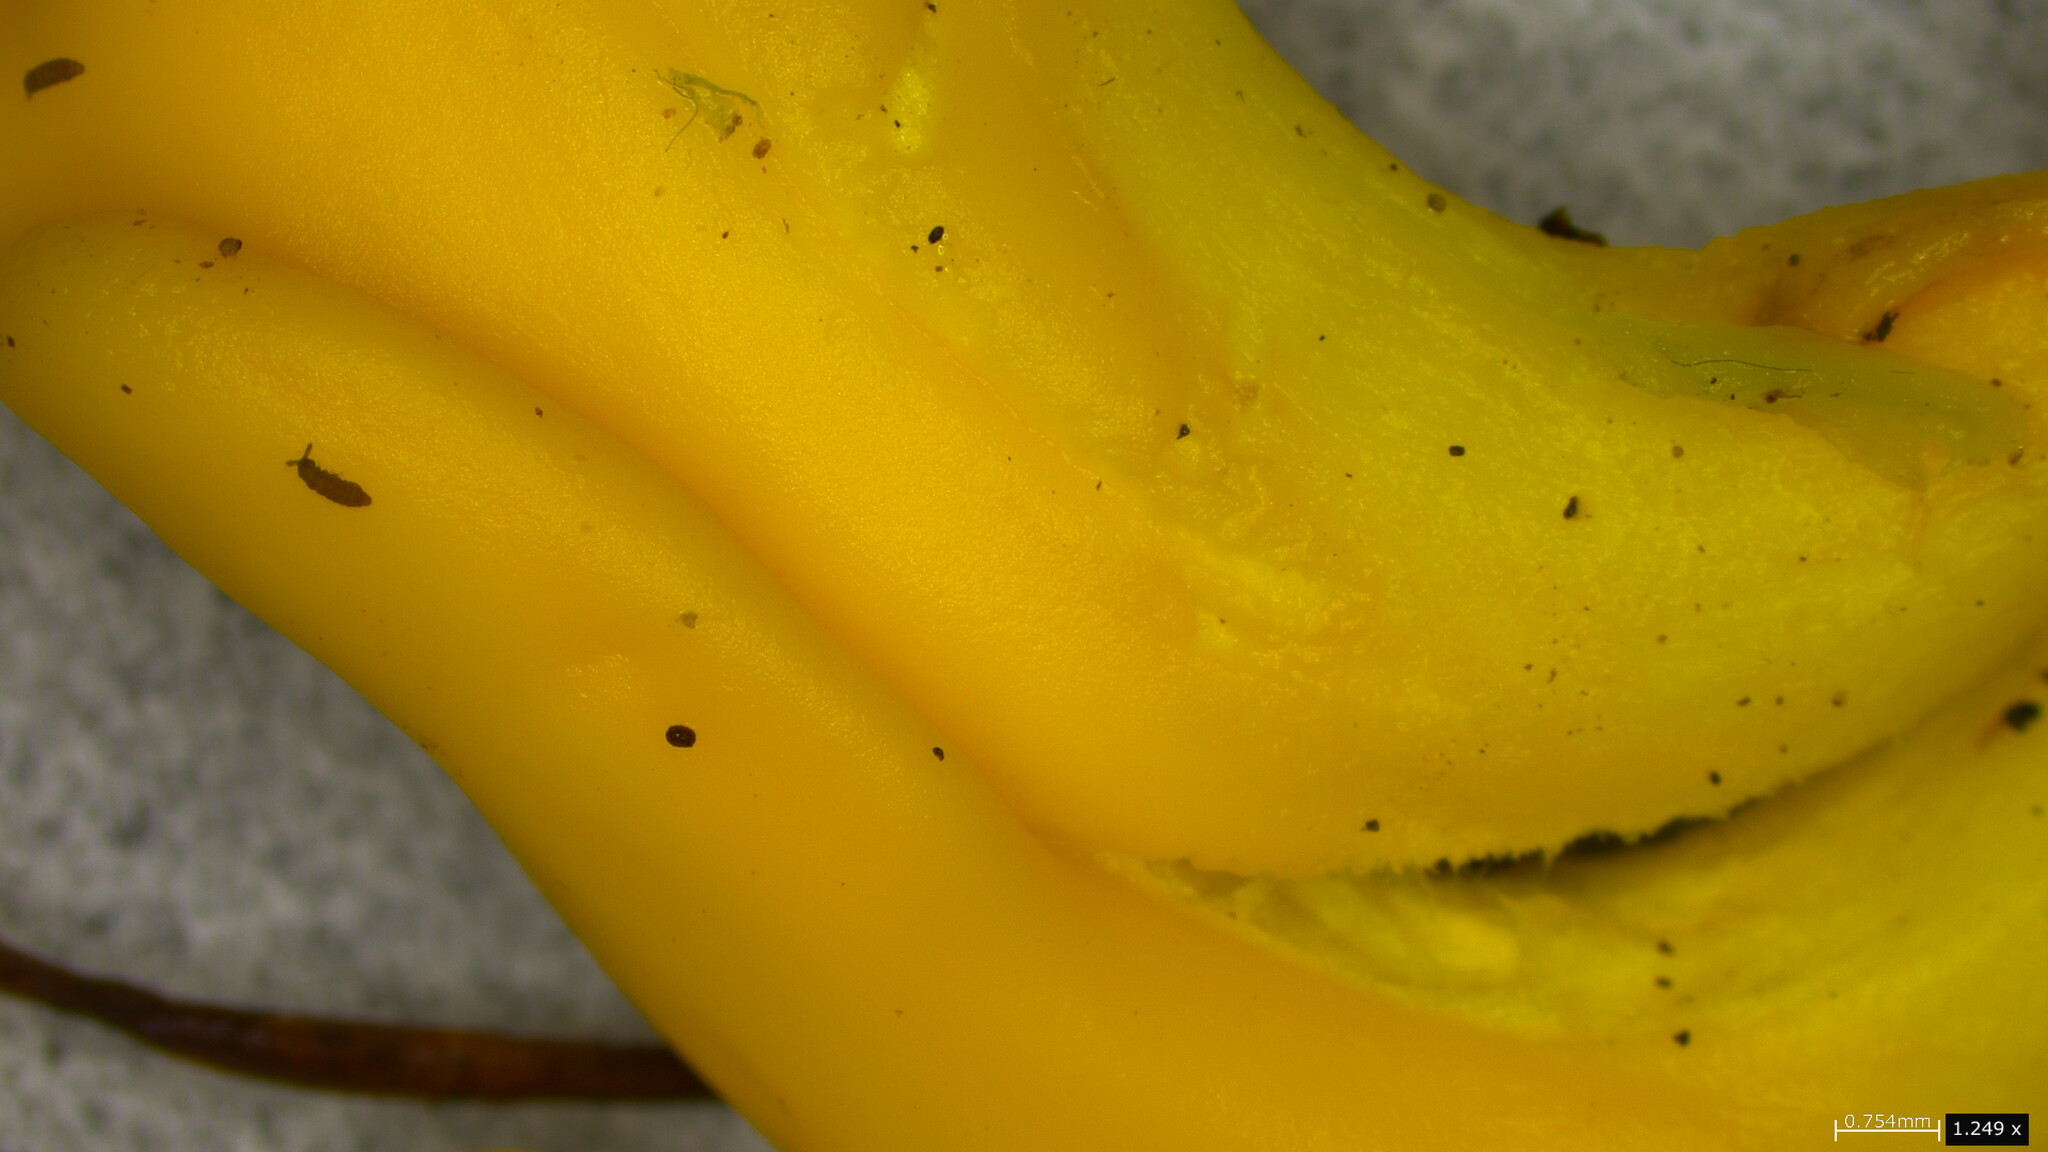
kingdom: Fungi
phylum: Ascomycota
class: Neolectomycetes
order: Neolectales
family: Neolectaceae
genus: Neolecta
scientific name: Neolecta irregularis
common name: Irregular earth tongue
